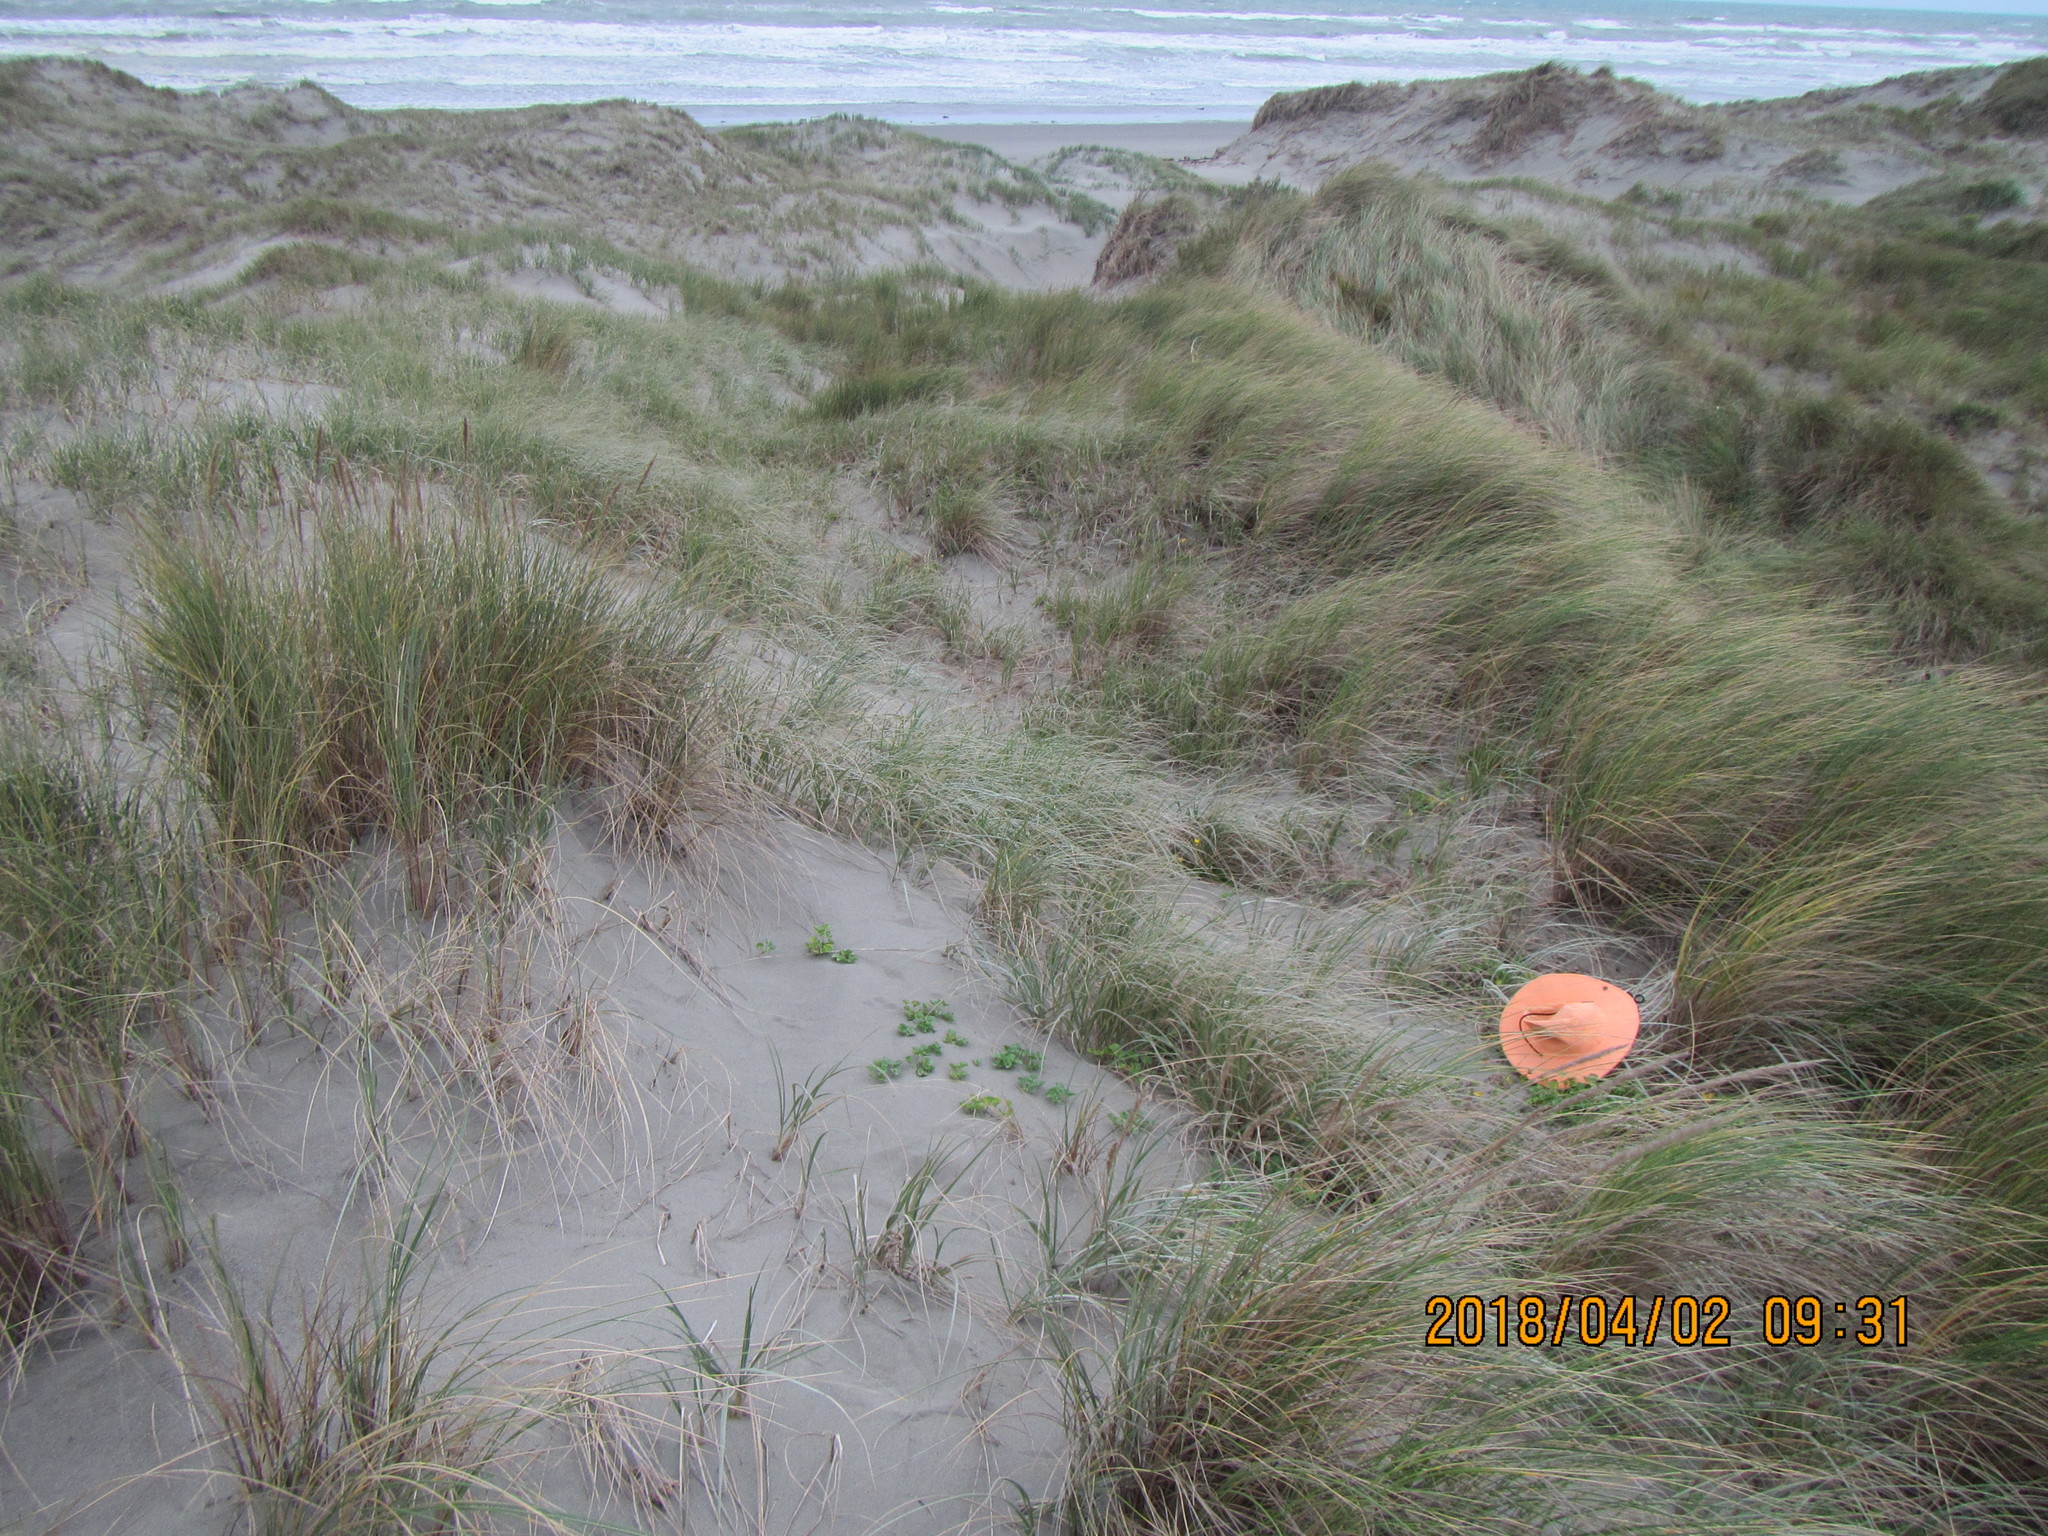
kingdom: Plantae
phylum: Tracheophyta
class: Magnoliopsida
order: Solanales
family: Convolvulaceae
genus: Calystegia
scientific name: Calystegia soldanella
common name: Sea bindweed
